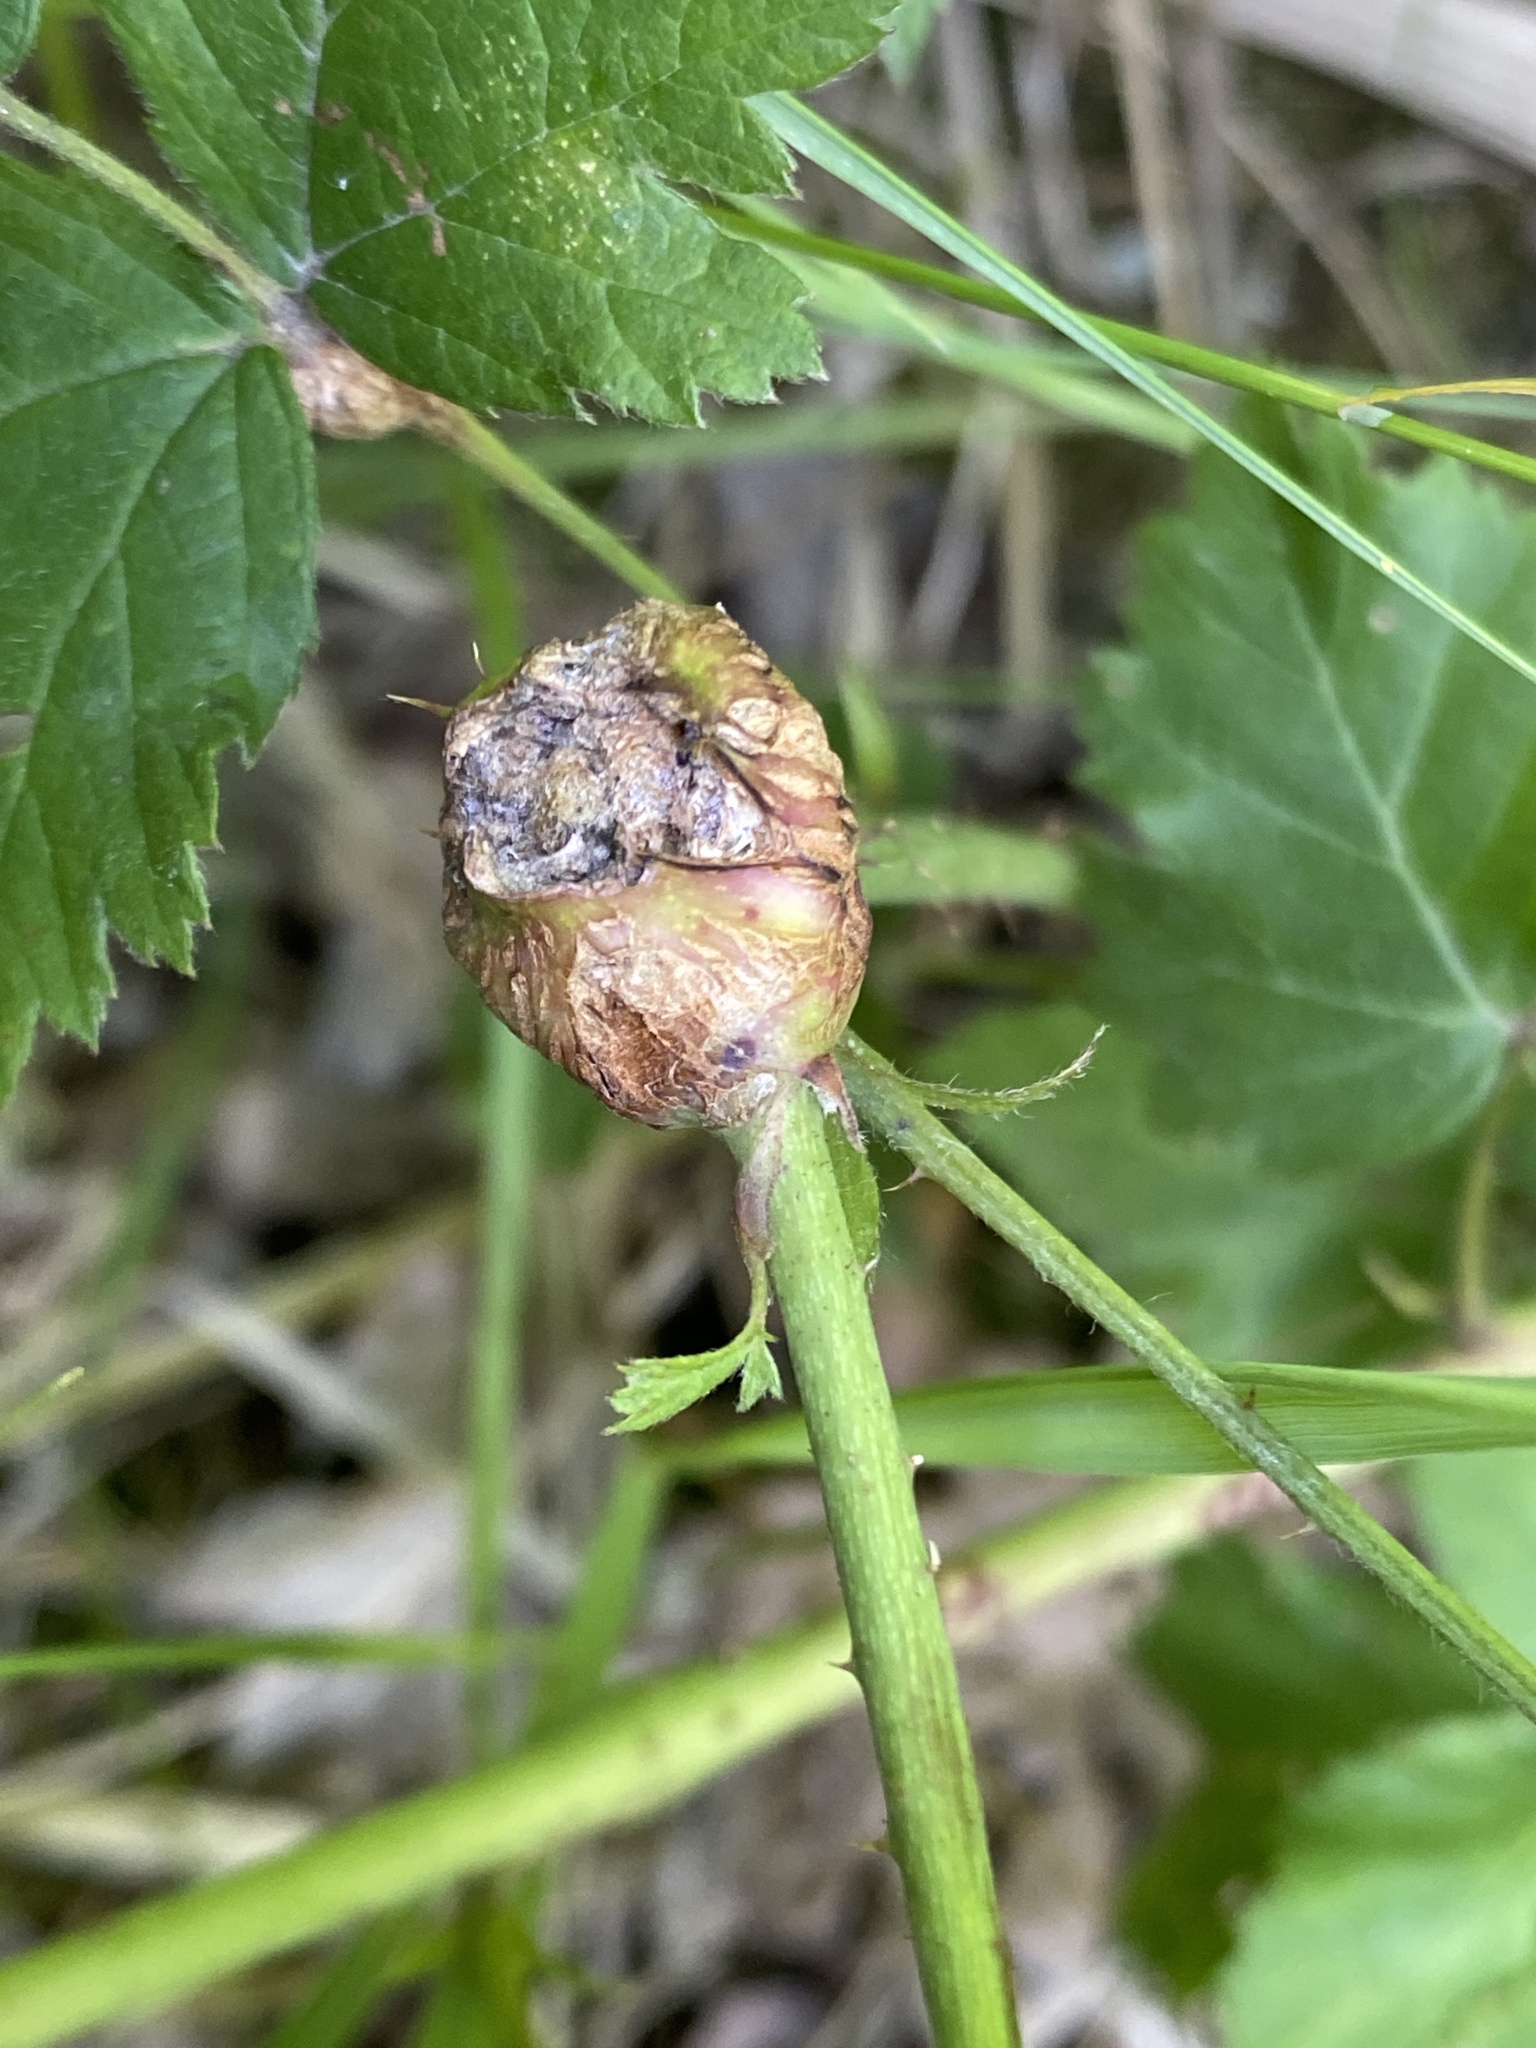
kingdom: Animalia
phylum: Arthropoda
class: Insecta
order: Diptera
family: Cecidomyiidae
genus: Lasioptera
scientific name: Lasioptera rubi
